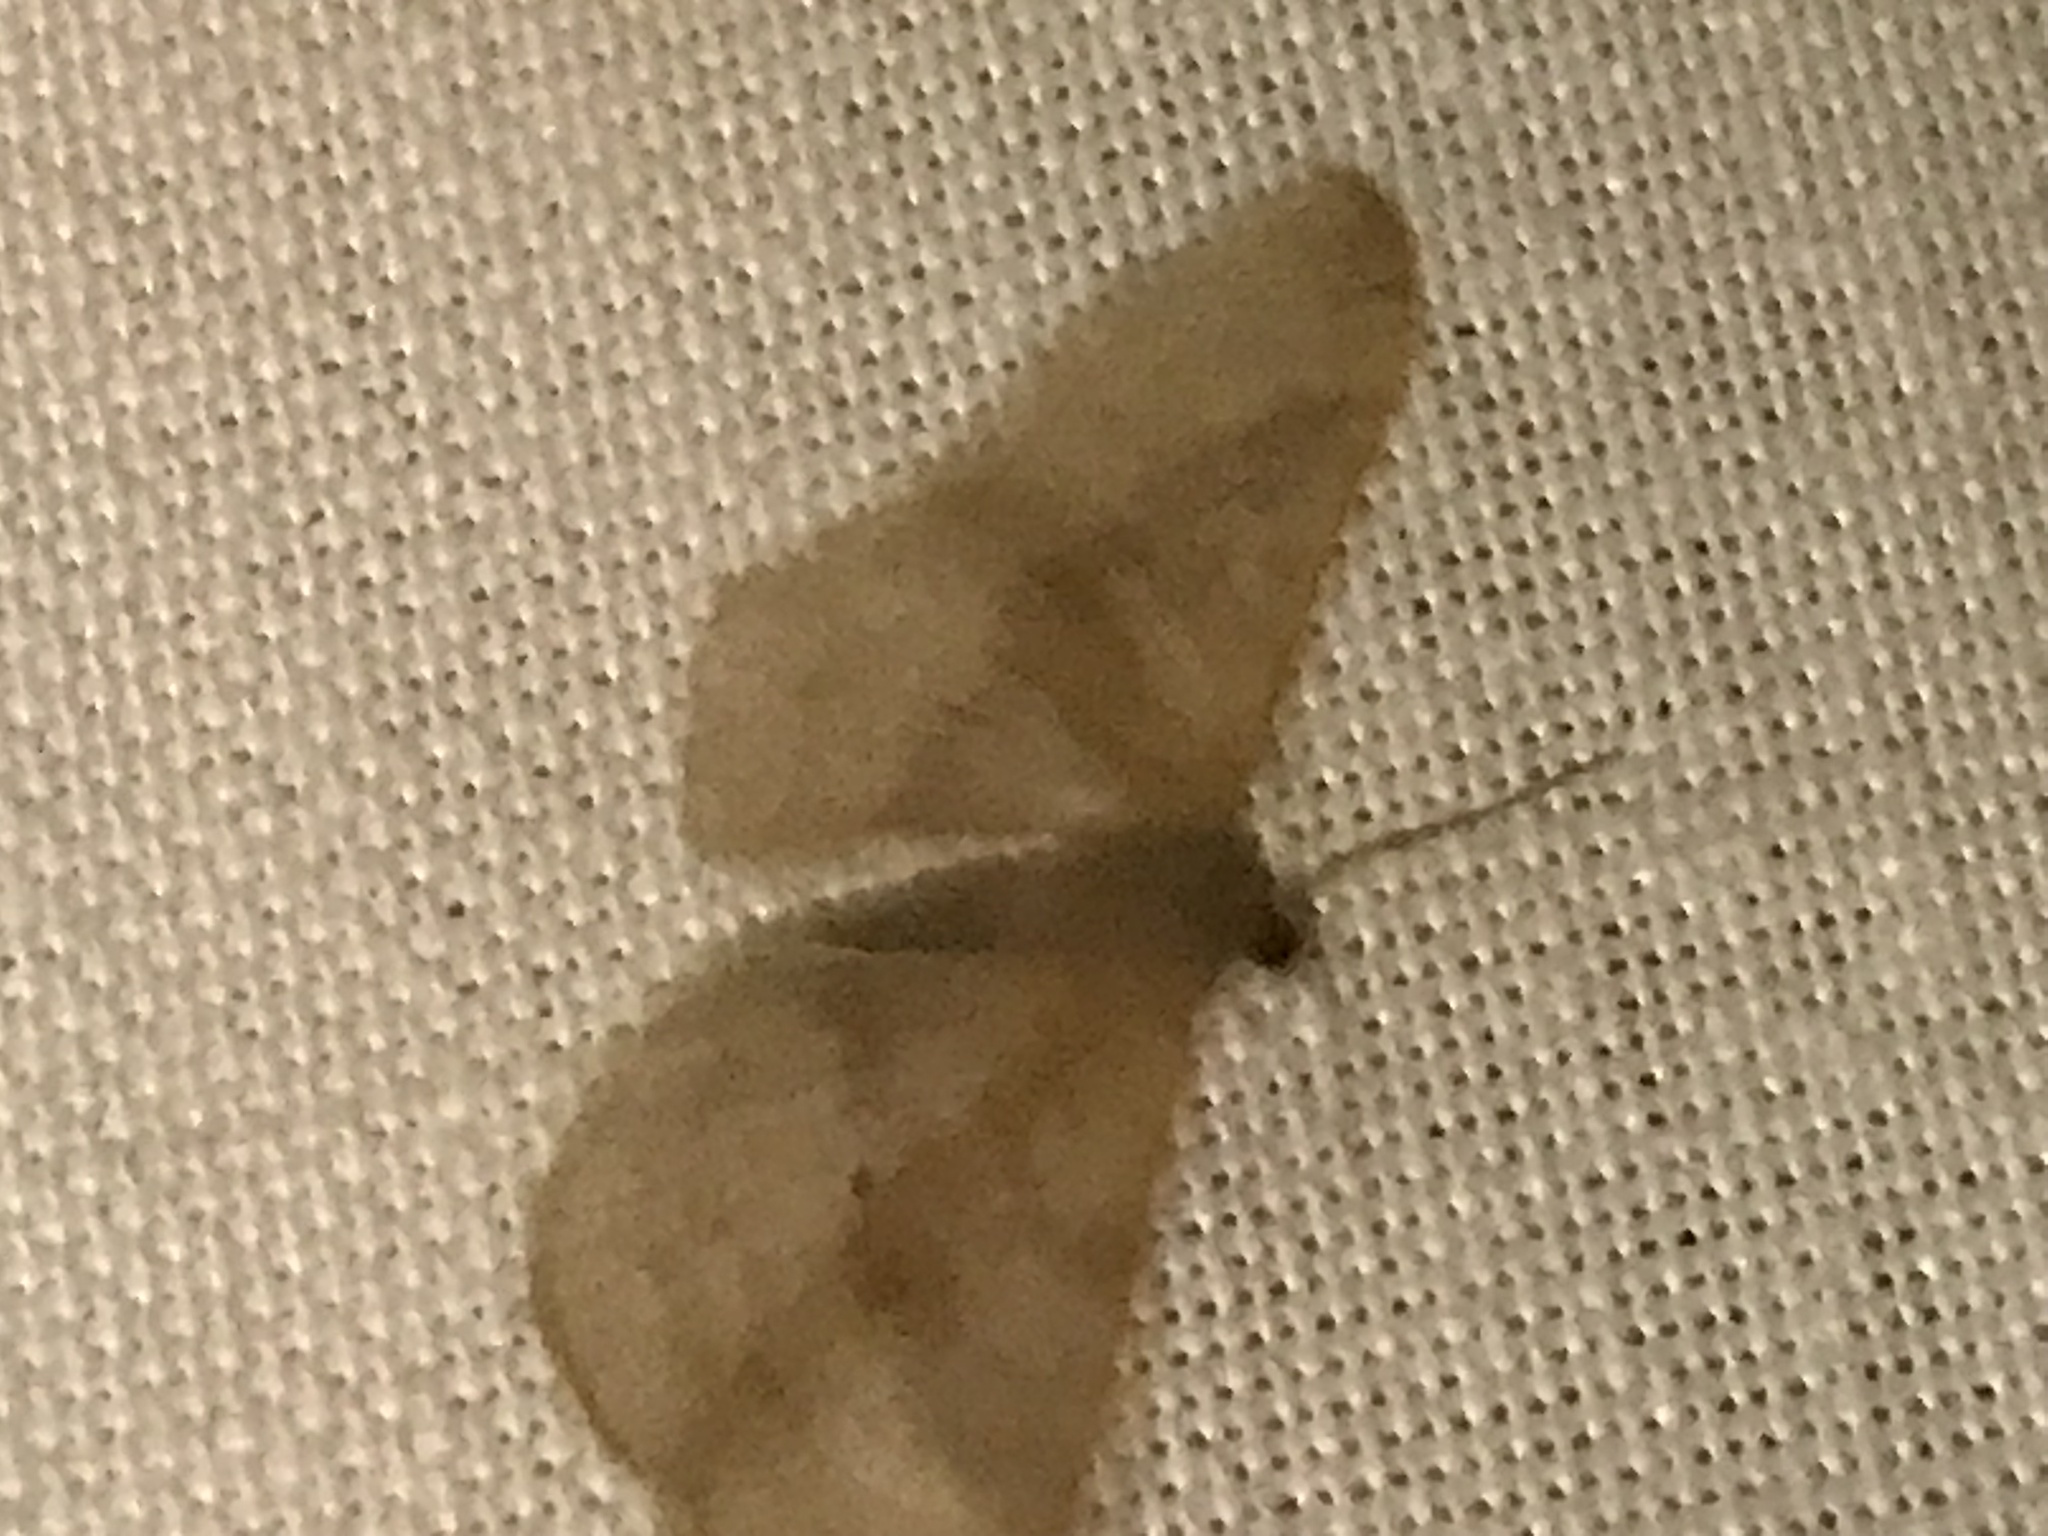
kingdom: Animalia
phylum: Arthropoda
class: Insecta
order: Lepidoptera
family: Geometridae
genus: Idaea
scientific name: Idaea degeneraria
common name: Portland ribbon wave
